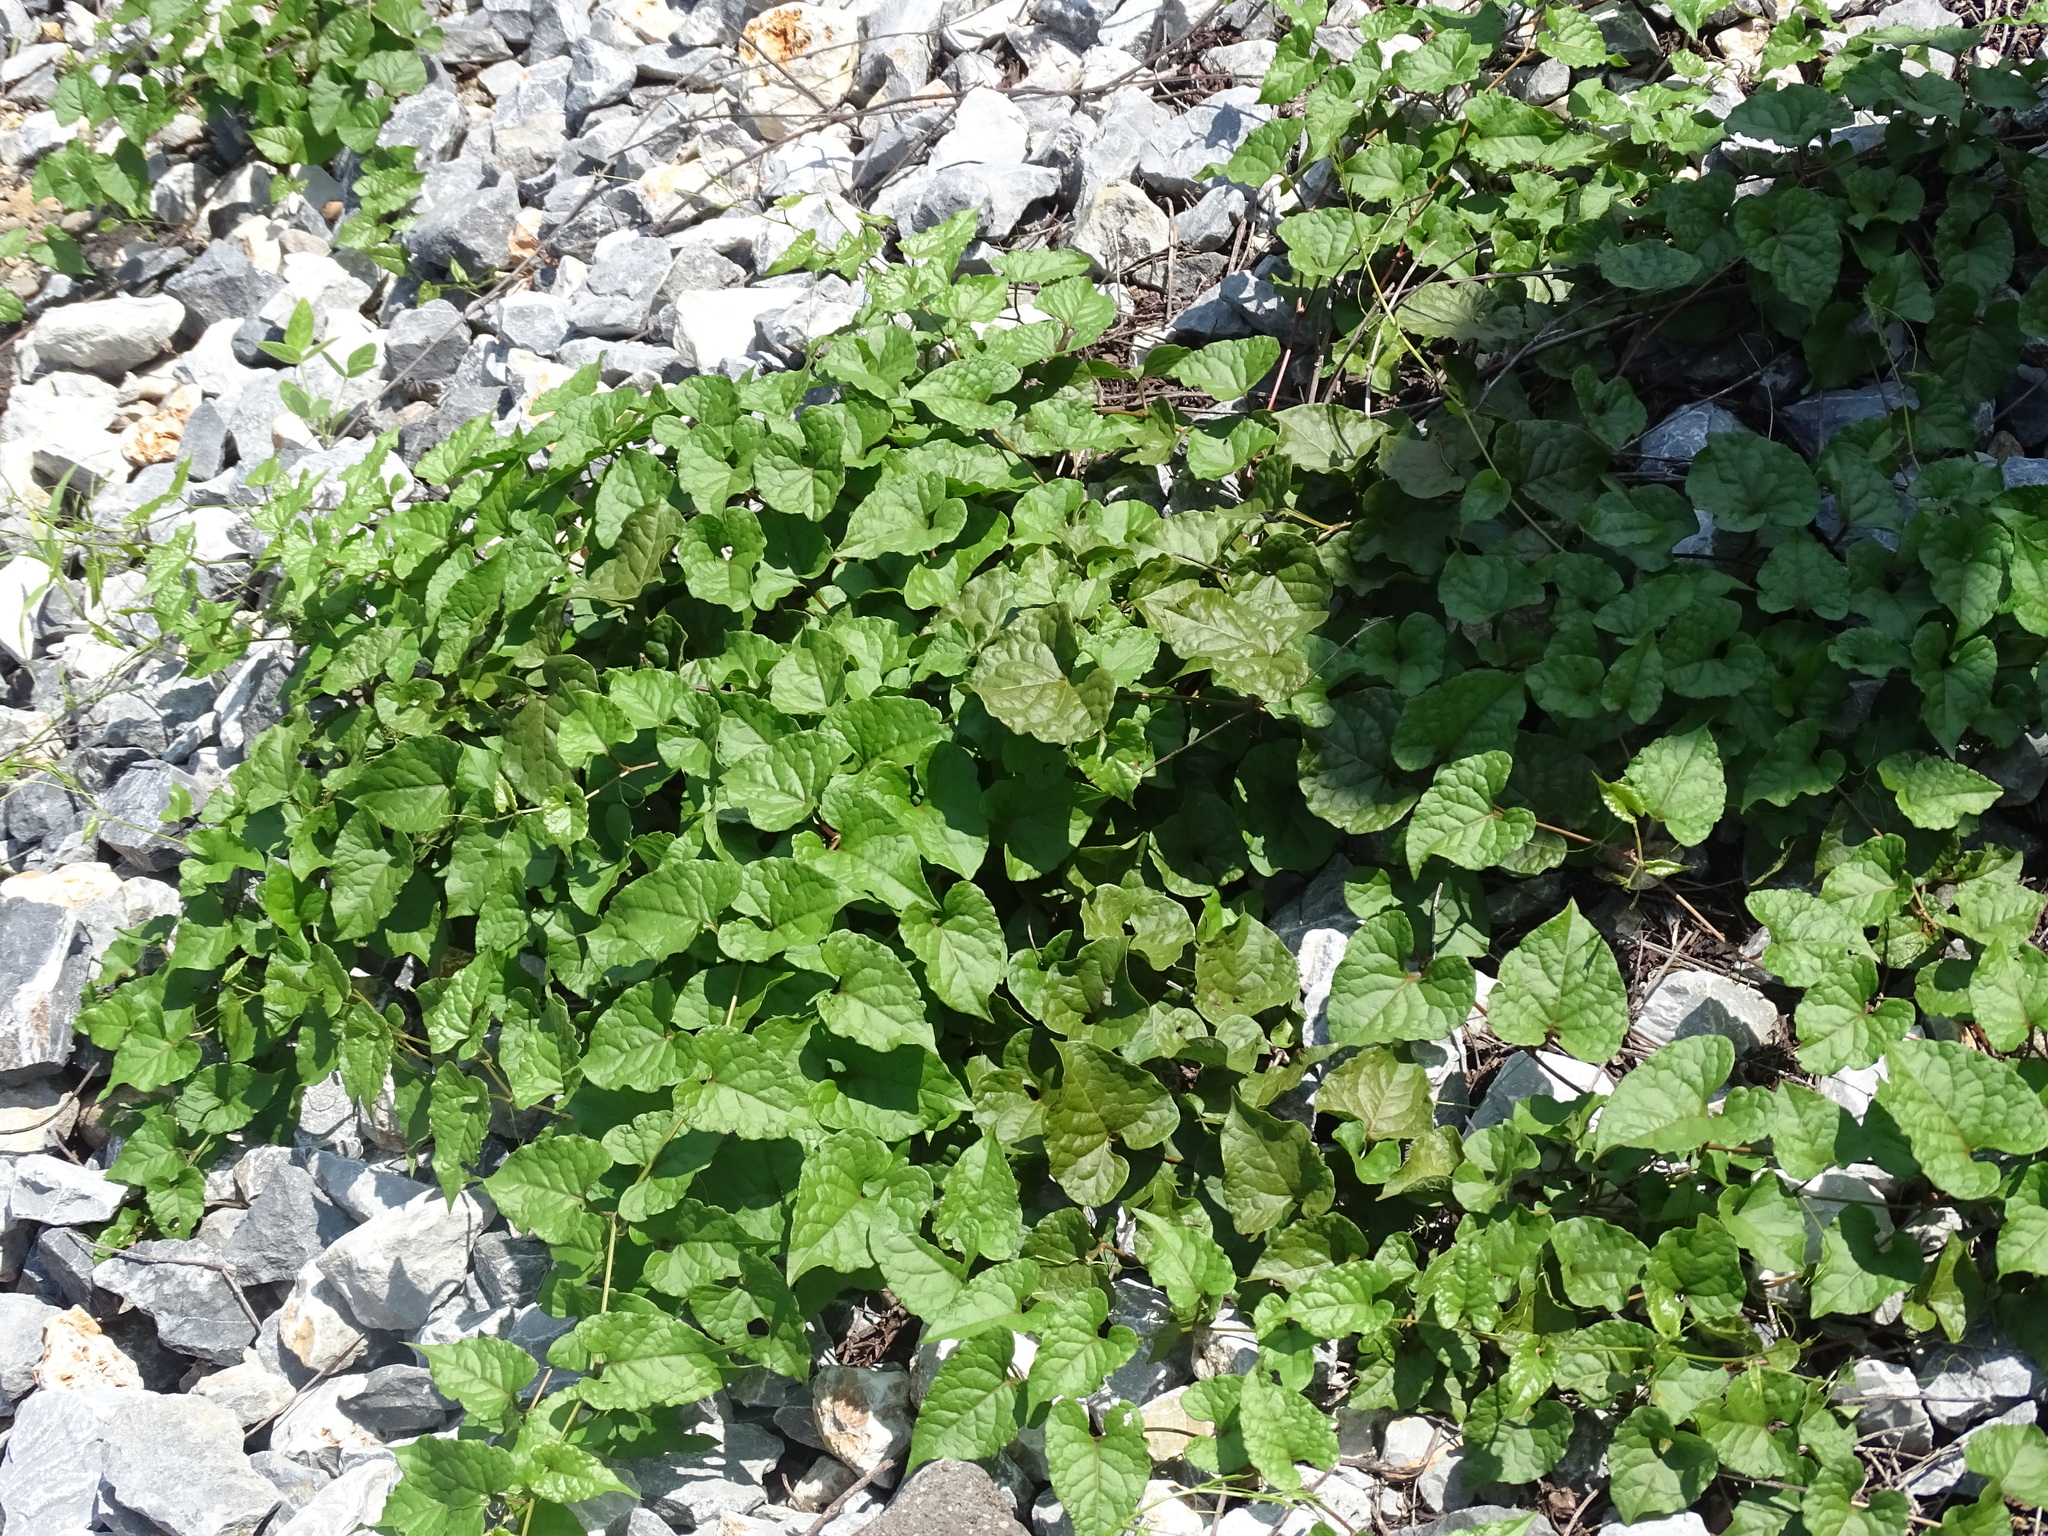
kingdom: Plantae
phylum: Tracheophyta
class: Magnoliopsida
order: Caryophyllales
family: Polygonaceae
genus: Antigonon
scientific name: Antigonon leptopus
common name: Coral vine
